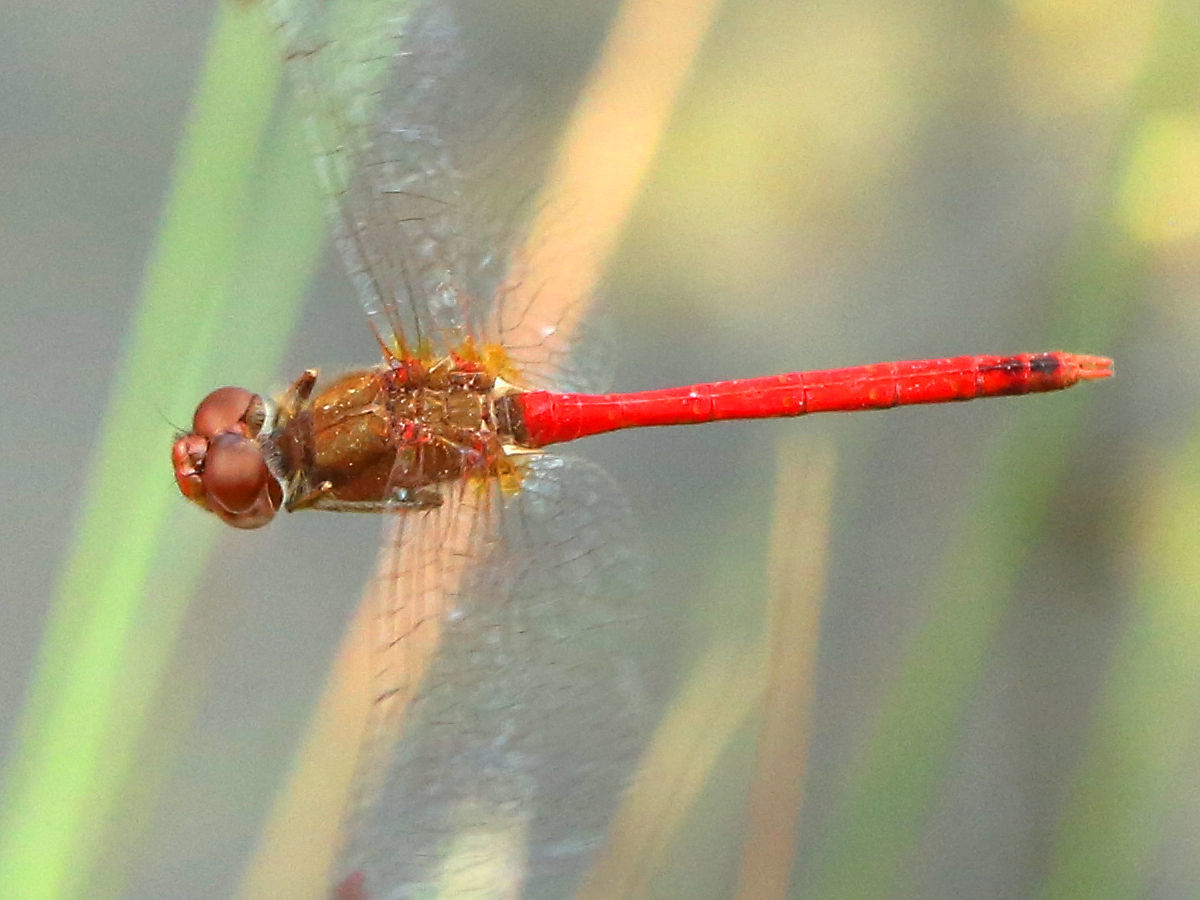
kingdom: Animalia
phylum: Arthropoda
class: Insecta
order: Odonata
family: Libellulidae
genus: Sympetrum
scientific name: Sympetrum vicinum
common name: Autumn meadowhawk
